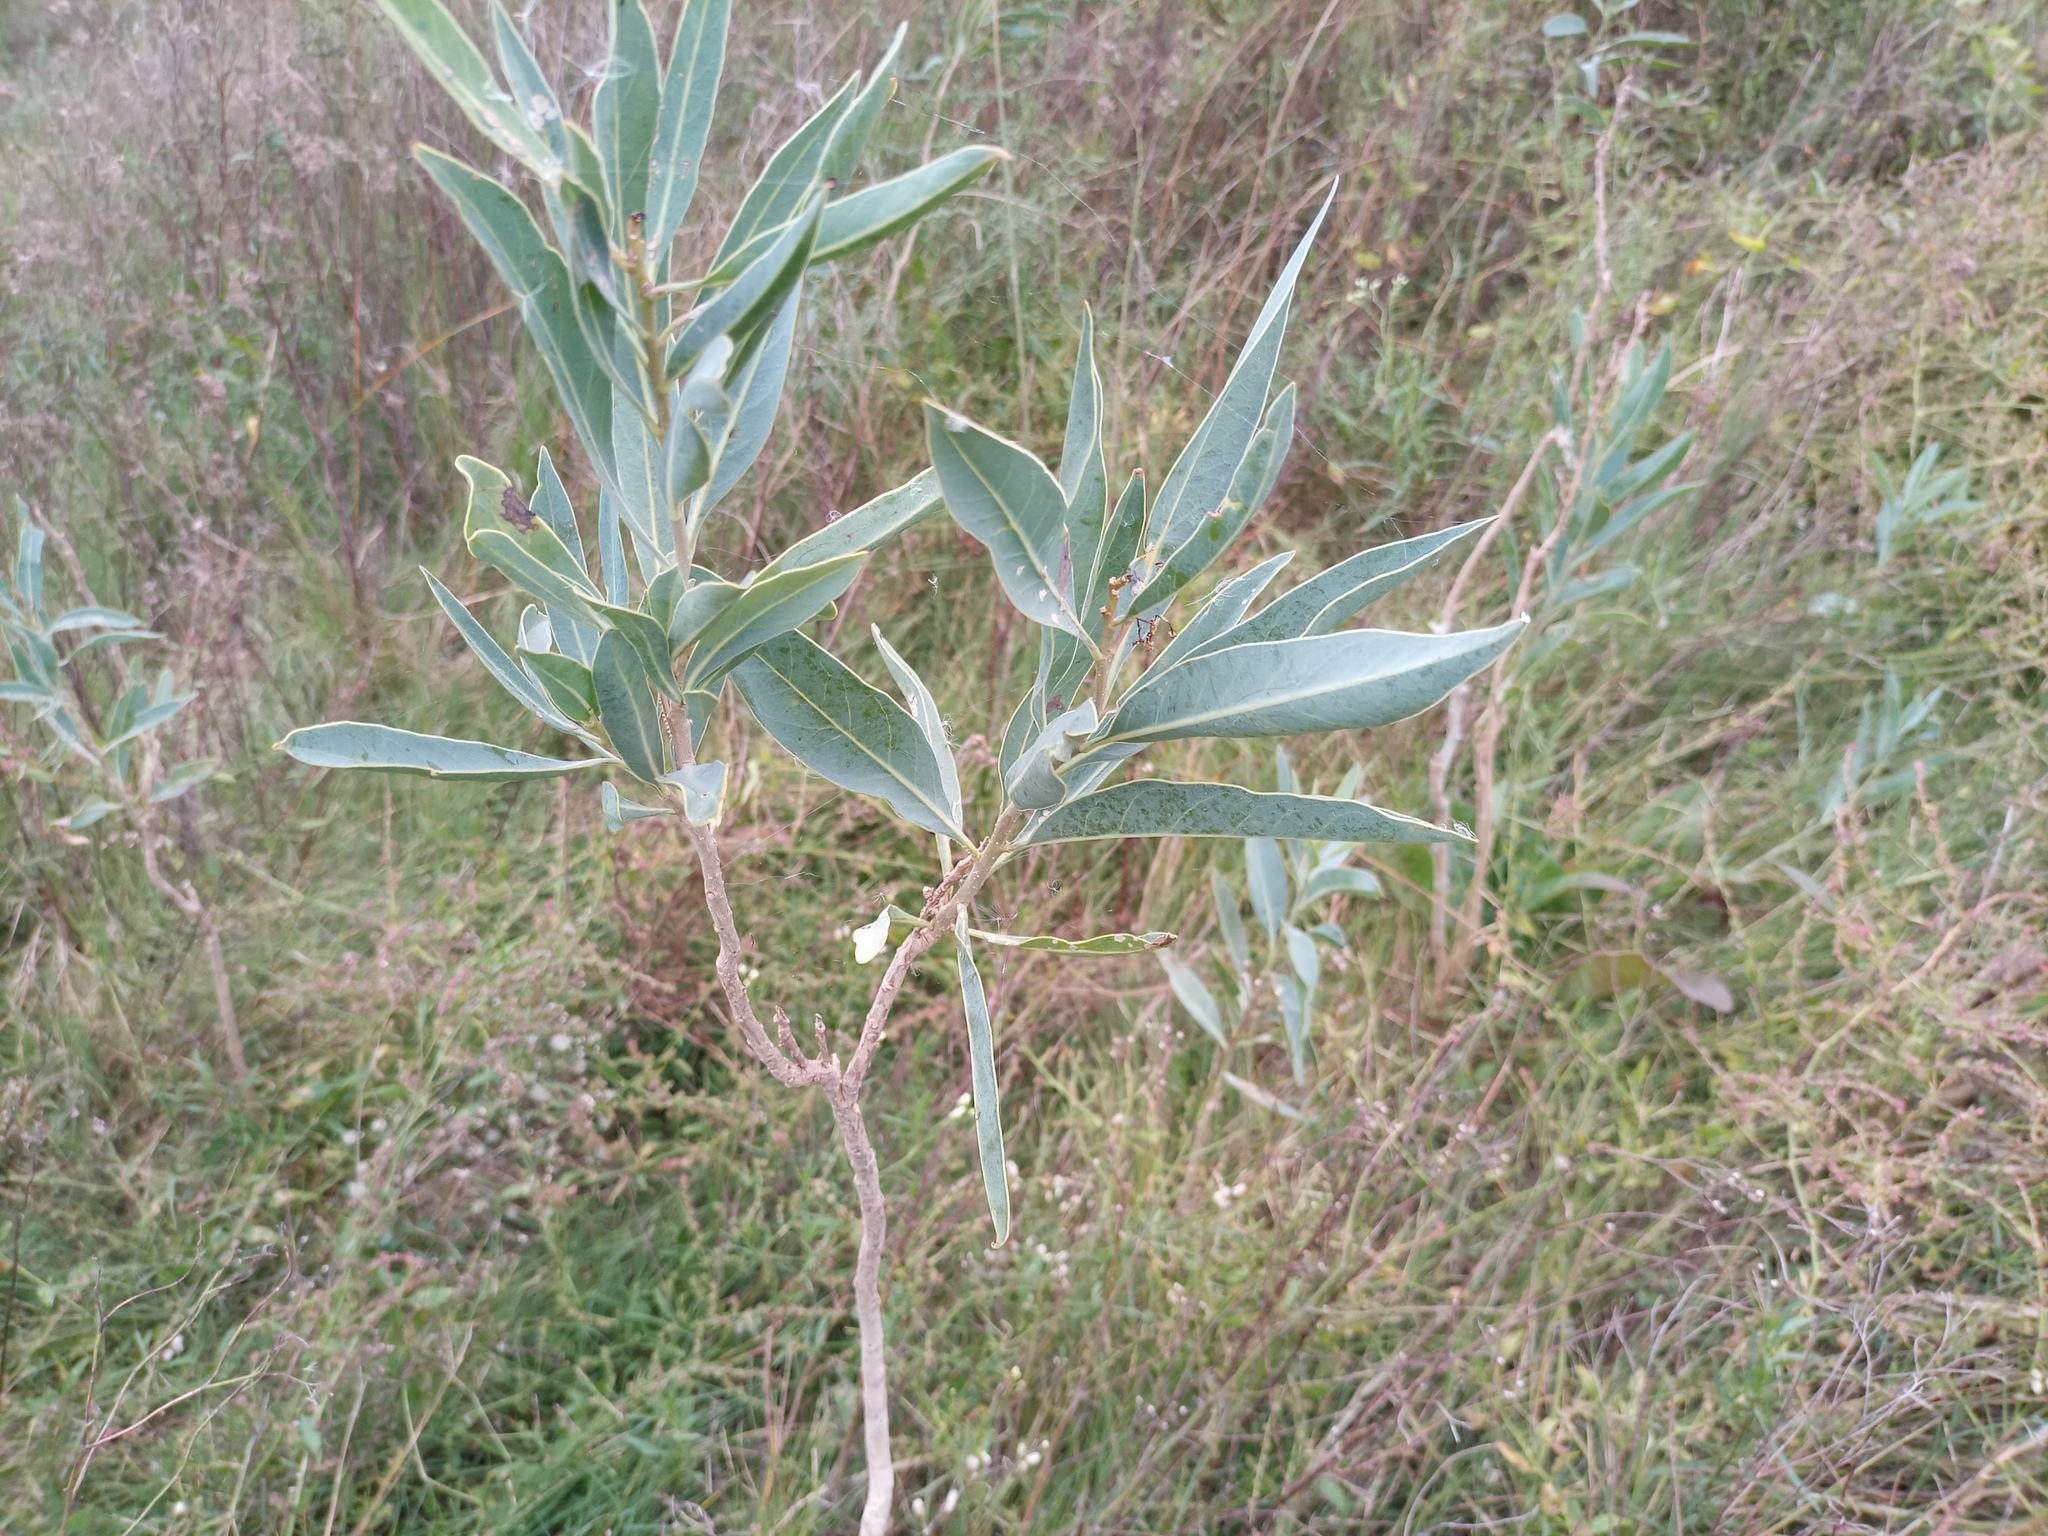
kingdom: Plantae
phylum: Tracheophyta
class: Magnoliopsida
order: Solanales
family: Solanaceae
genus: Solanum
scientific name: Solanum glaucophyllum
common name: Waxyleaf nightshade
